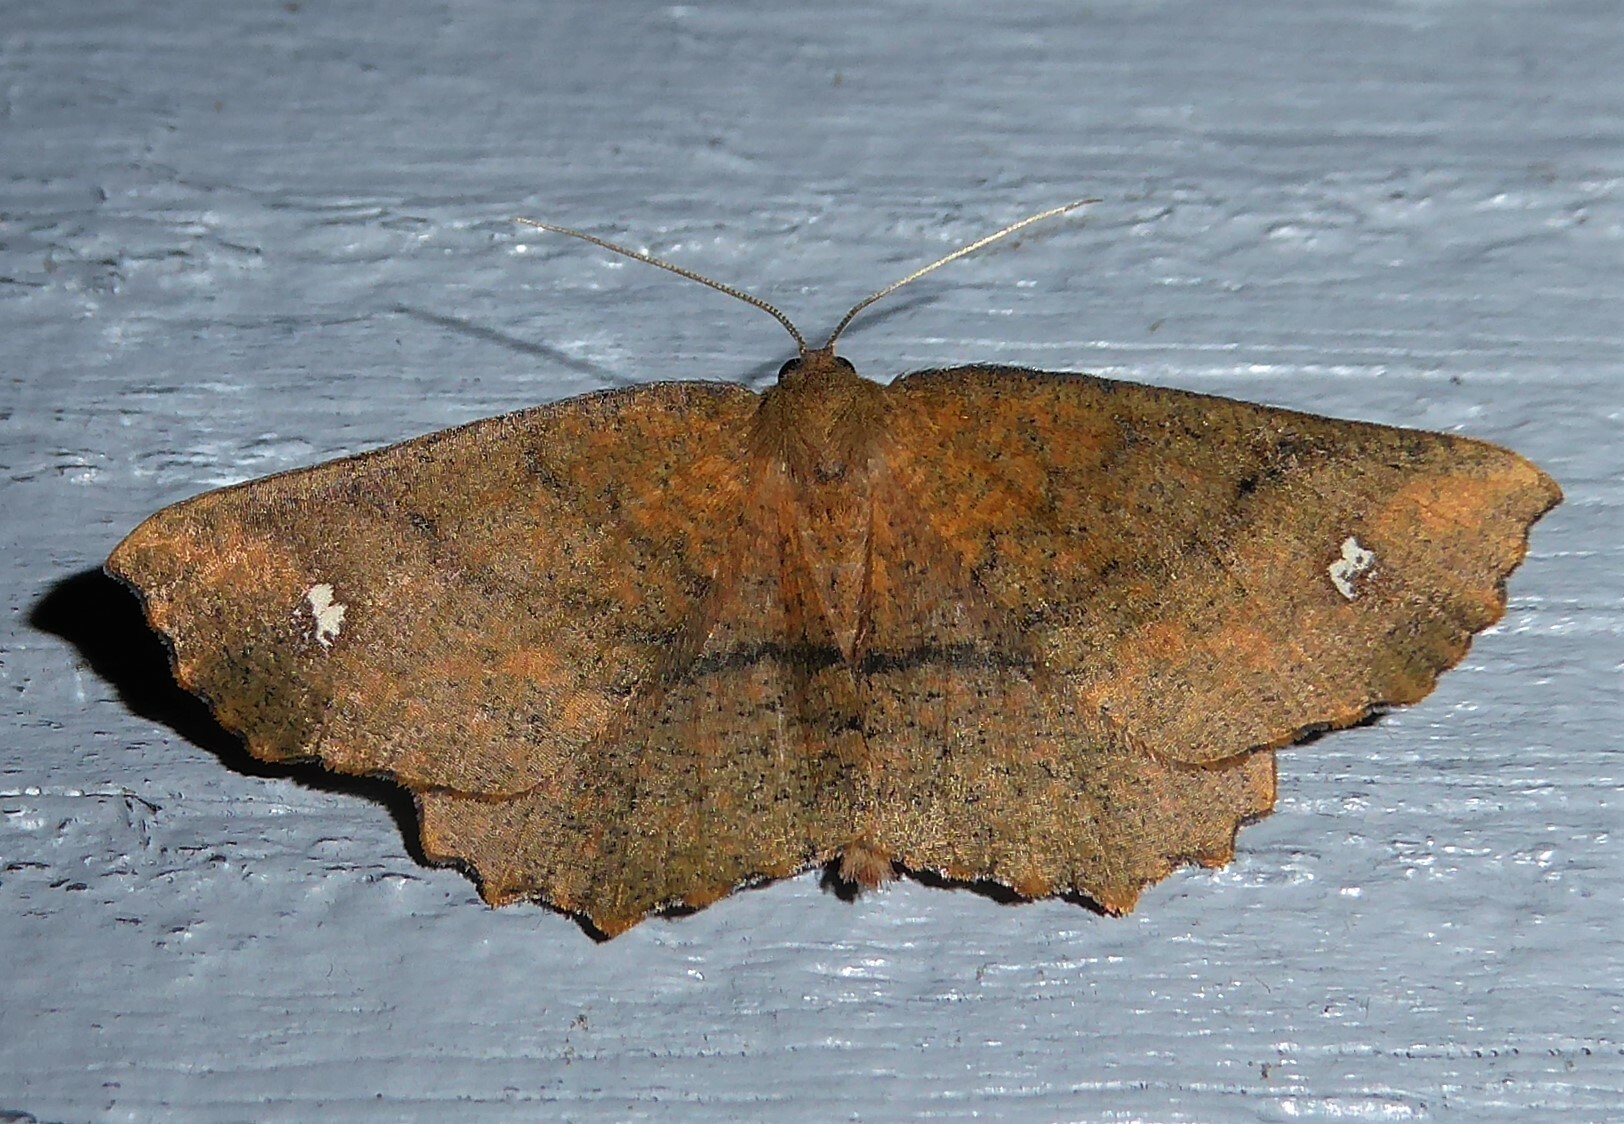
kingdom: Animalia
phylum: Arthropoda
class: Insecta
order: Lepidoptera
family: Geometridae
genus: Xyridacma
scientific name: Xyridacma ustaria
